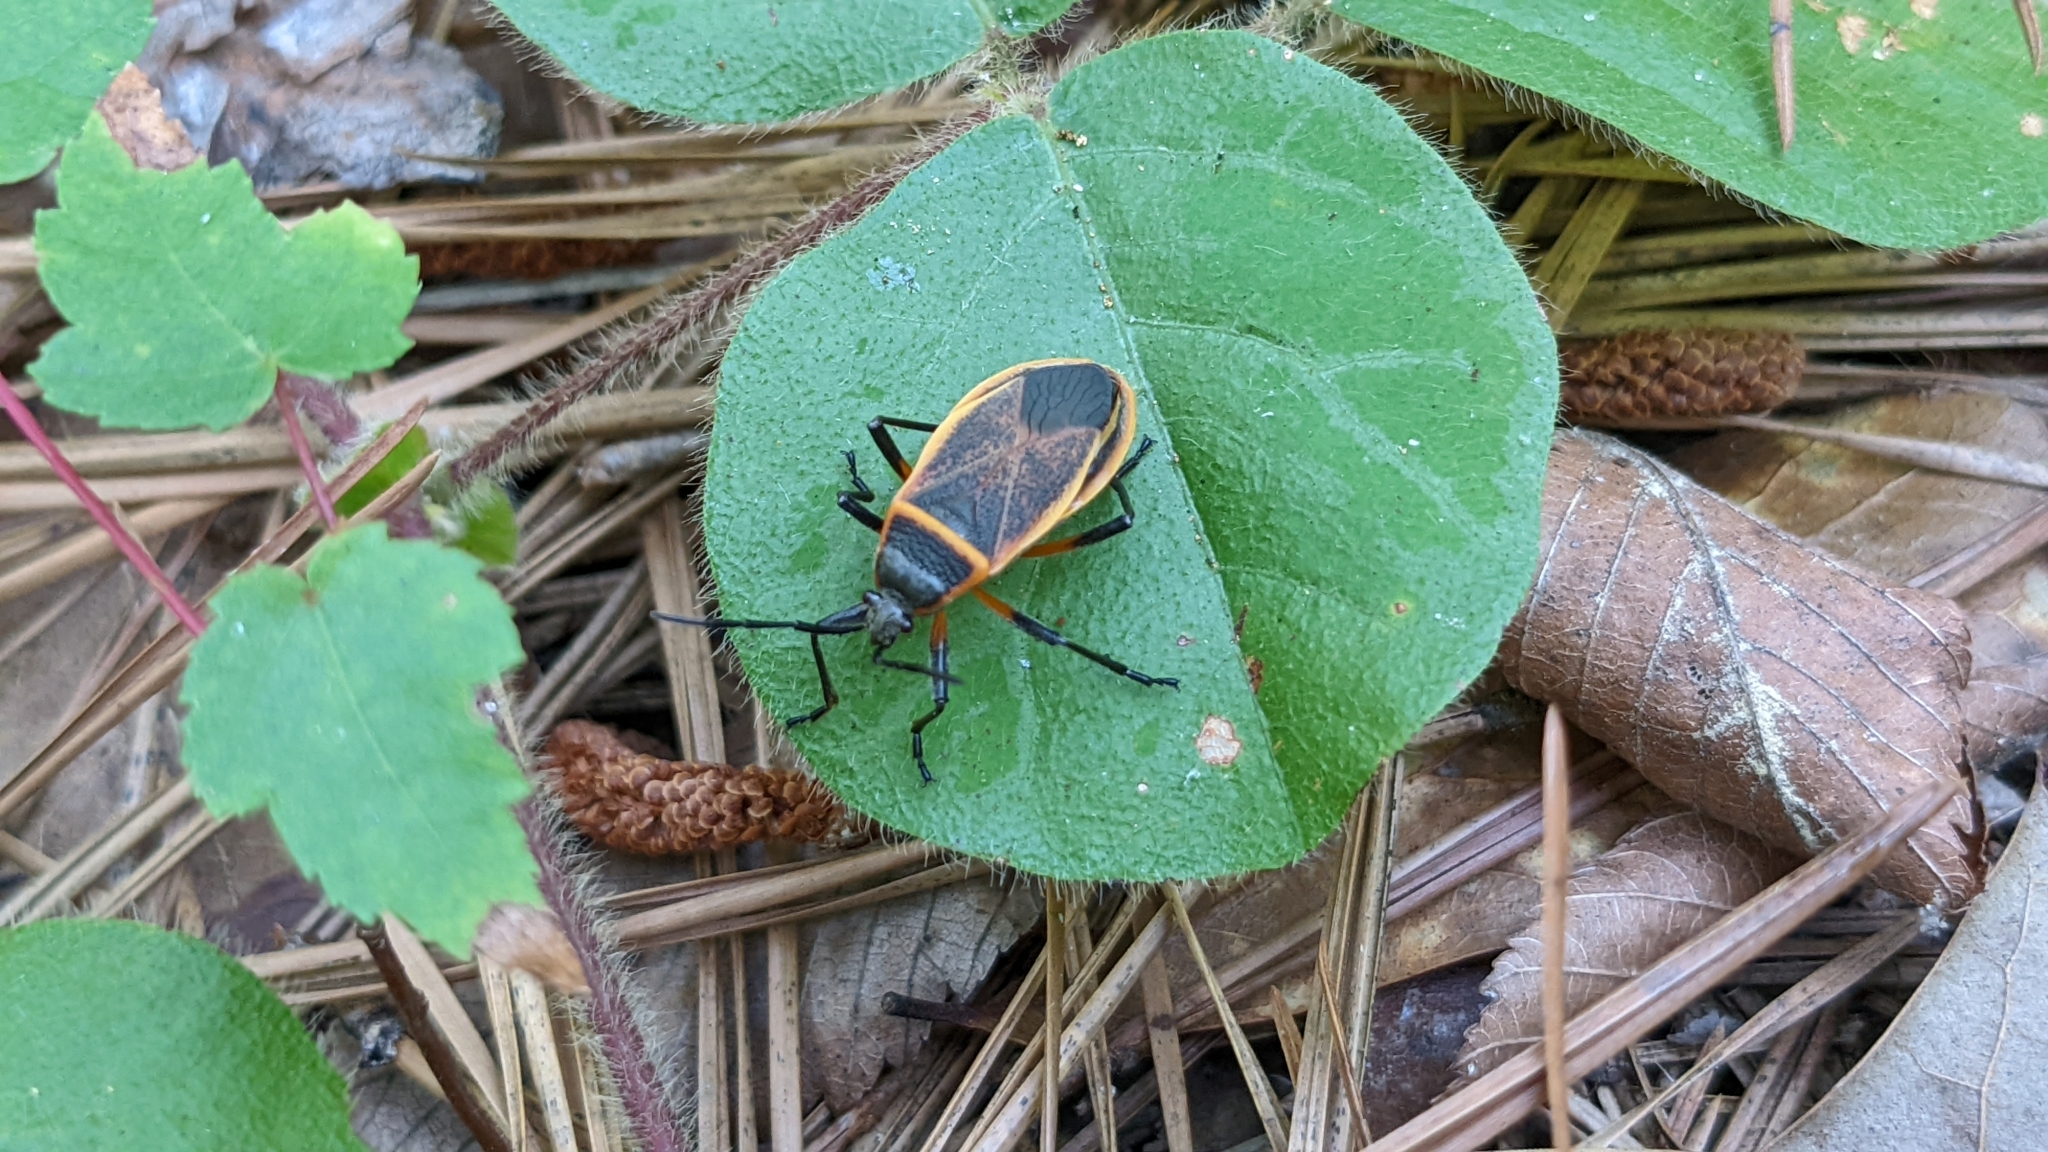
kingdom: Animalia
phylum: Arthropoda
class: Insecta
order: Hemiptera
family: Largidae
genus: Largus
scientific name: Largus succinctus
